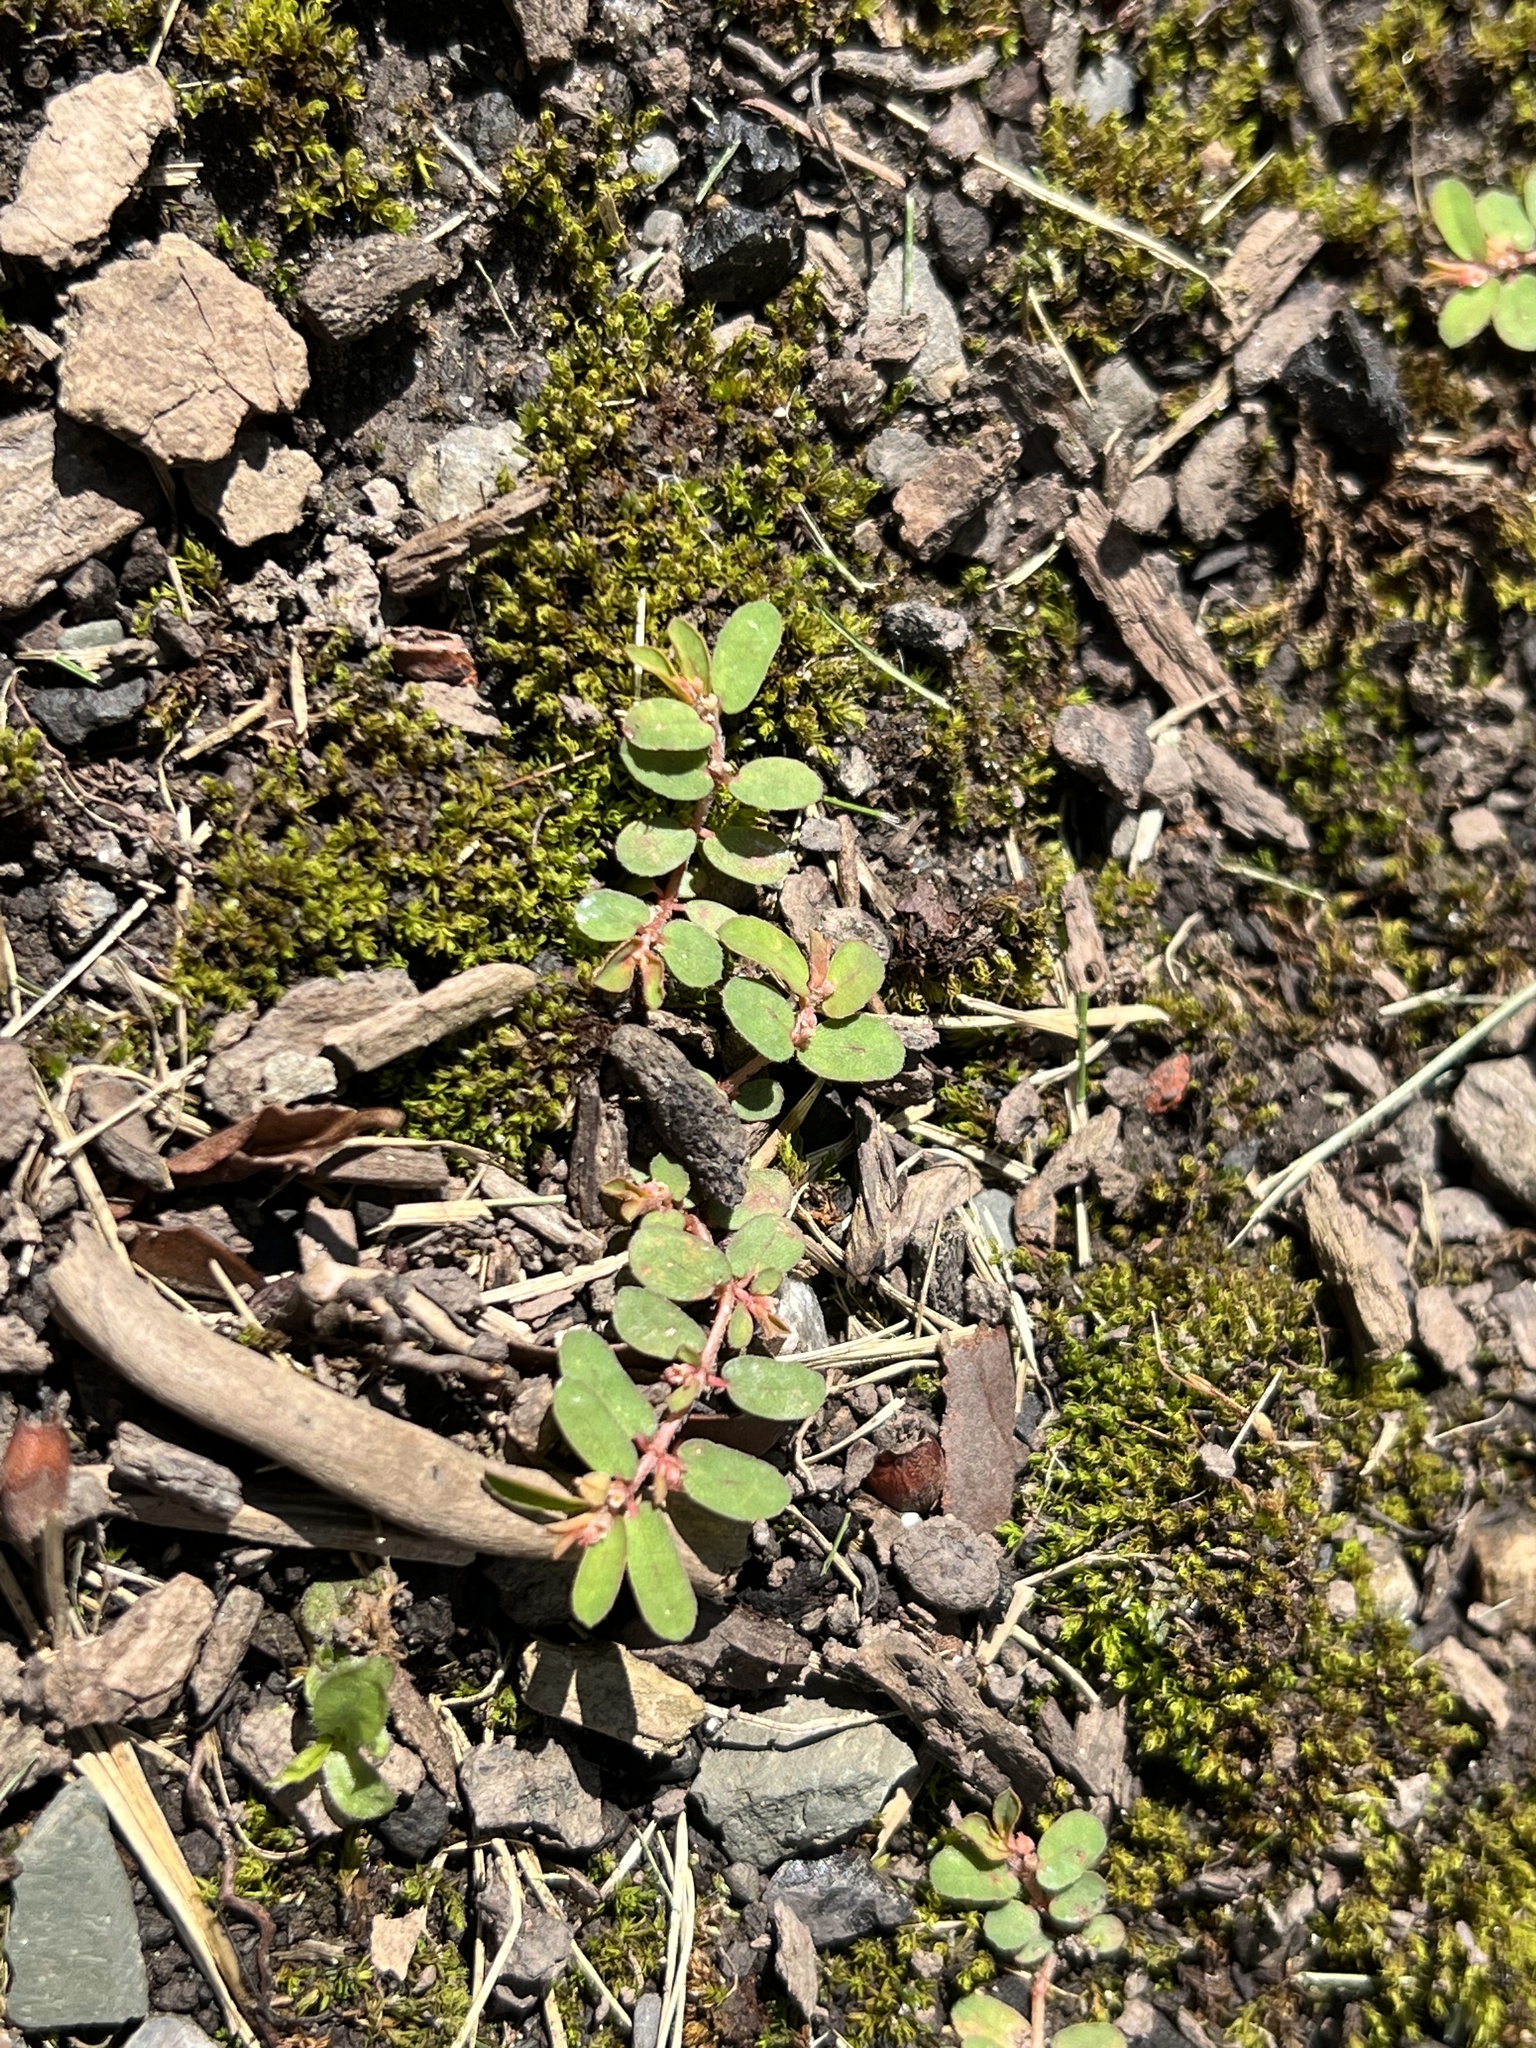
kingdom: Plantae
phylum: Tracheophyta
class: Magnoliopsida
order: Malpighiales
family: Euphorbiaceae
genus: Euphorbia
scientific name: Euphorbia maculata
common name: Spotted spurge
